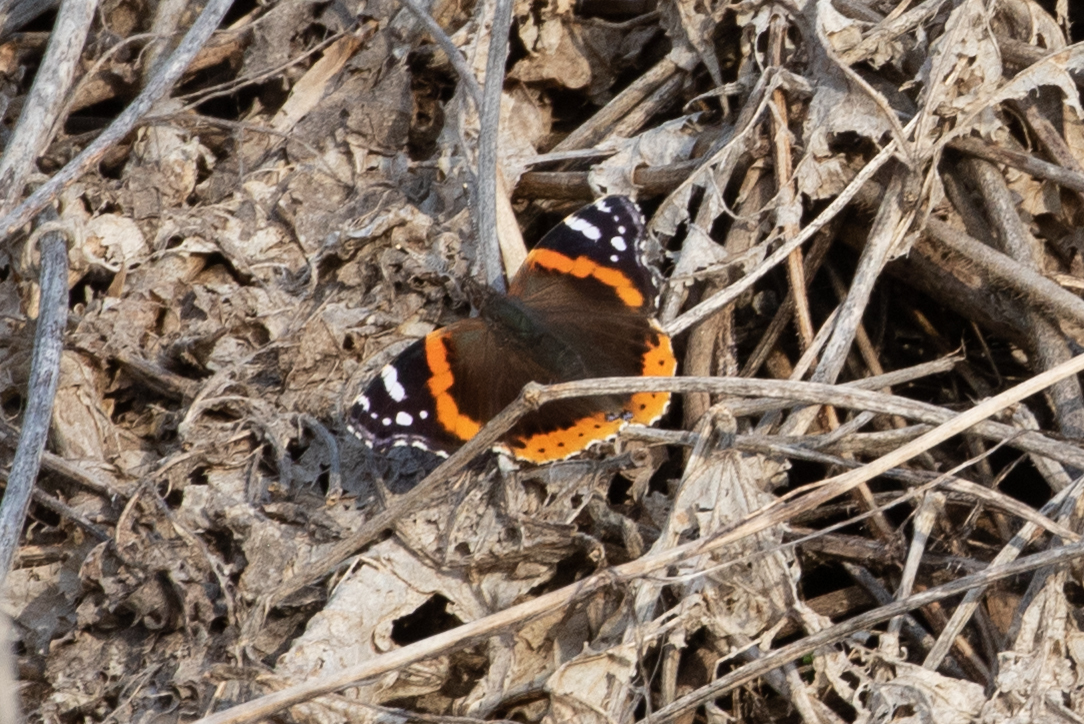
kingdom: Animalia
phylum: Arthropoda
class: Insecta
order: Lepidoptera
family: Nymphalidae
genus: Vanessa
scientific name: Vanessa atalanta
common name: Red admiral
